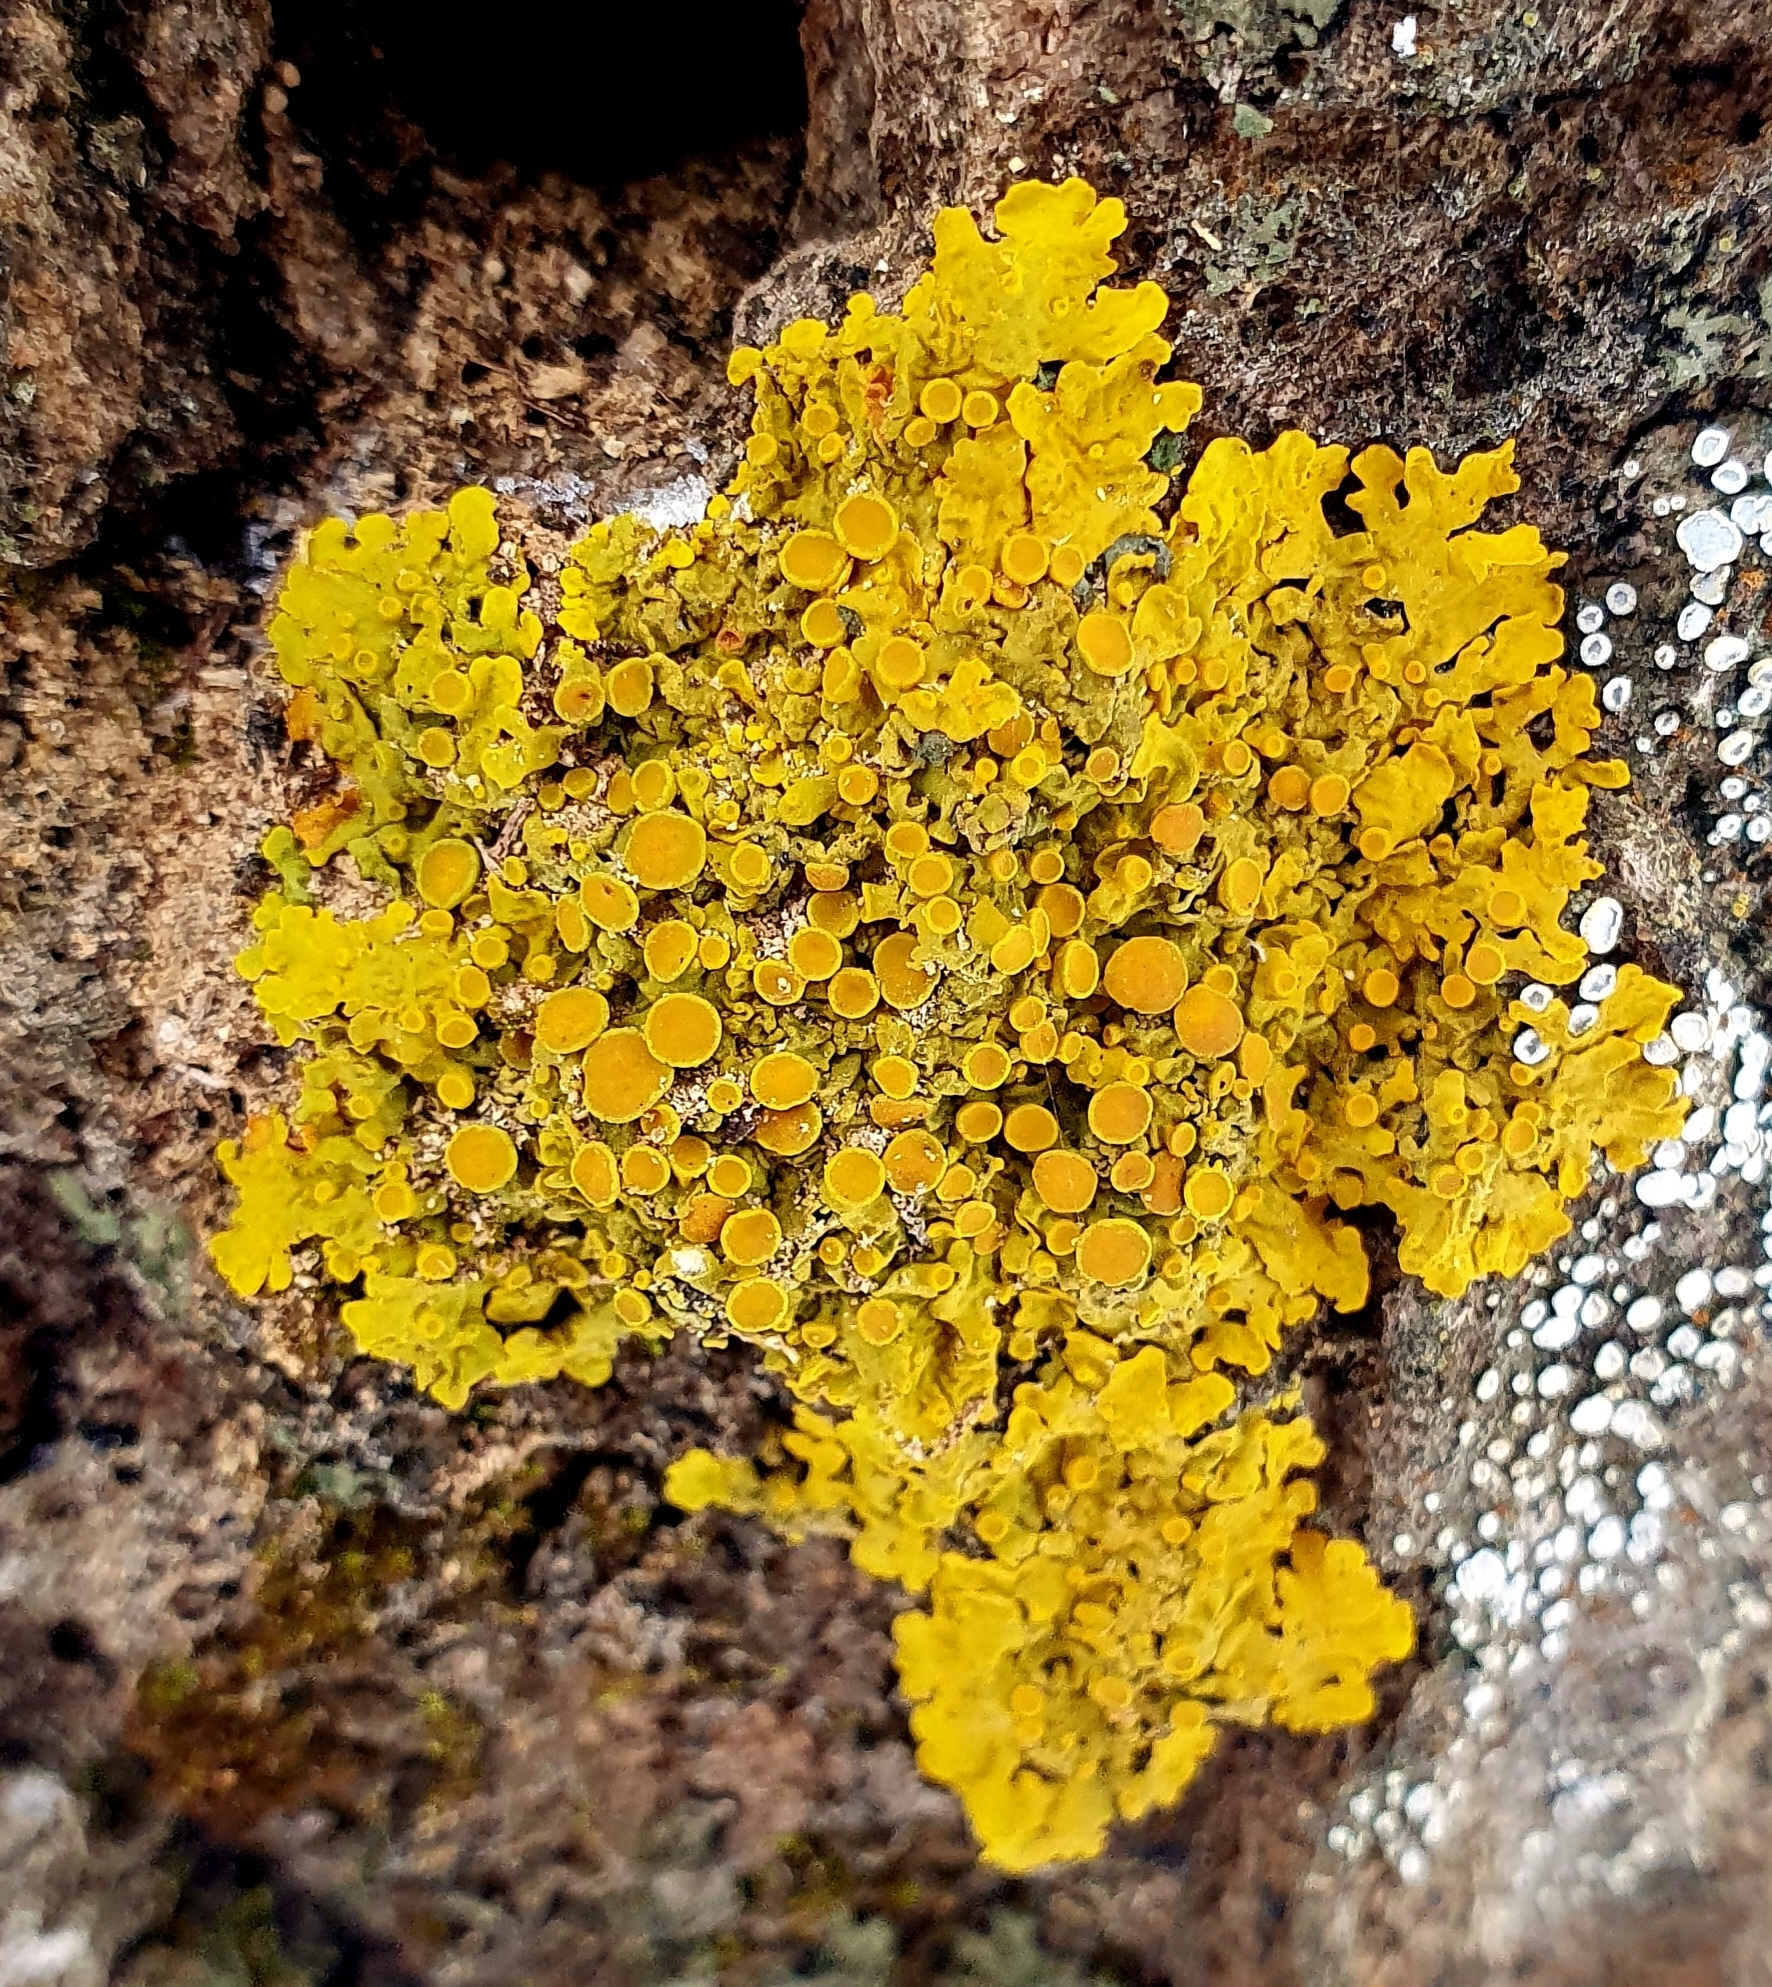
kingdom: Fungi
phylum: Ascomycota
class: Lecanoromycetes
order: Teloschistales
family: Teloschistaceae
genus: Xanthoria
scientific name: Xanthoria parietina
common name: Common orange lichen
